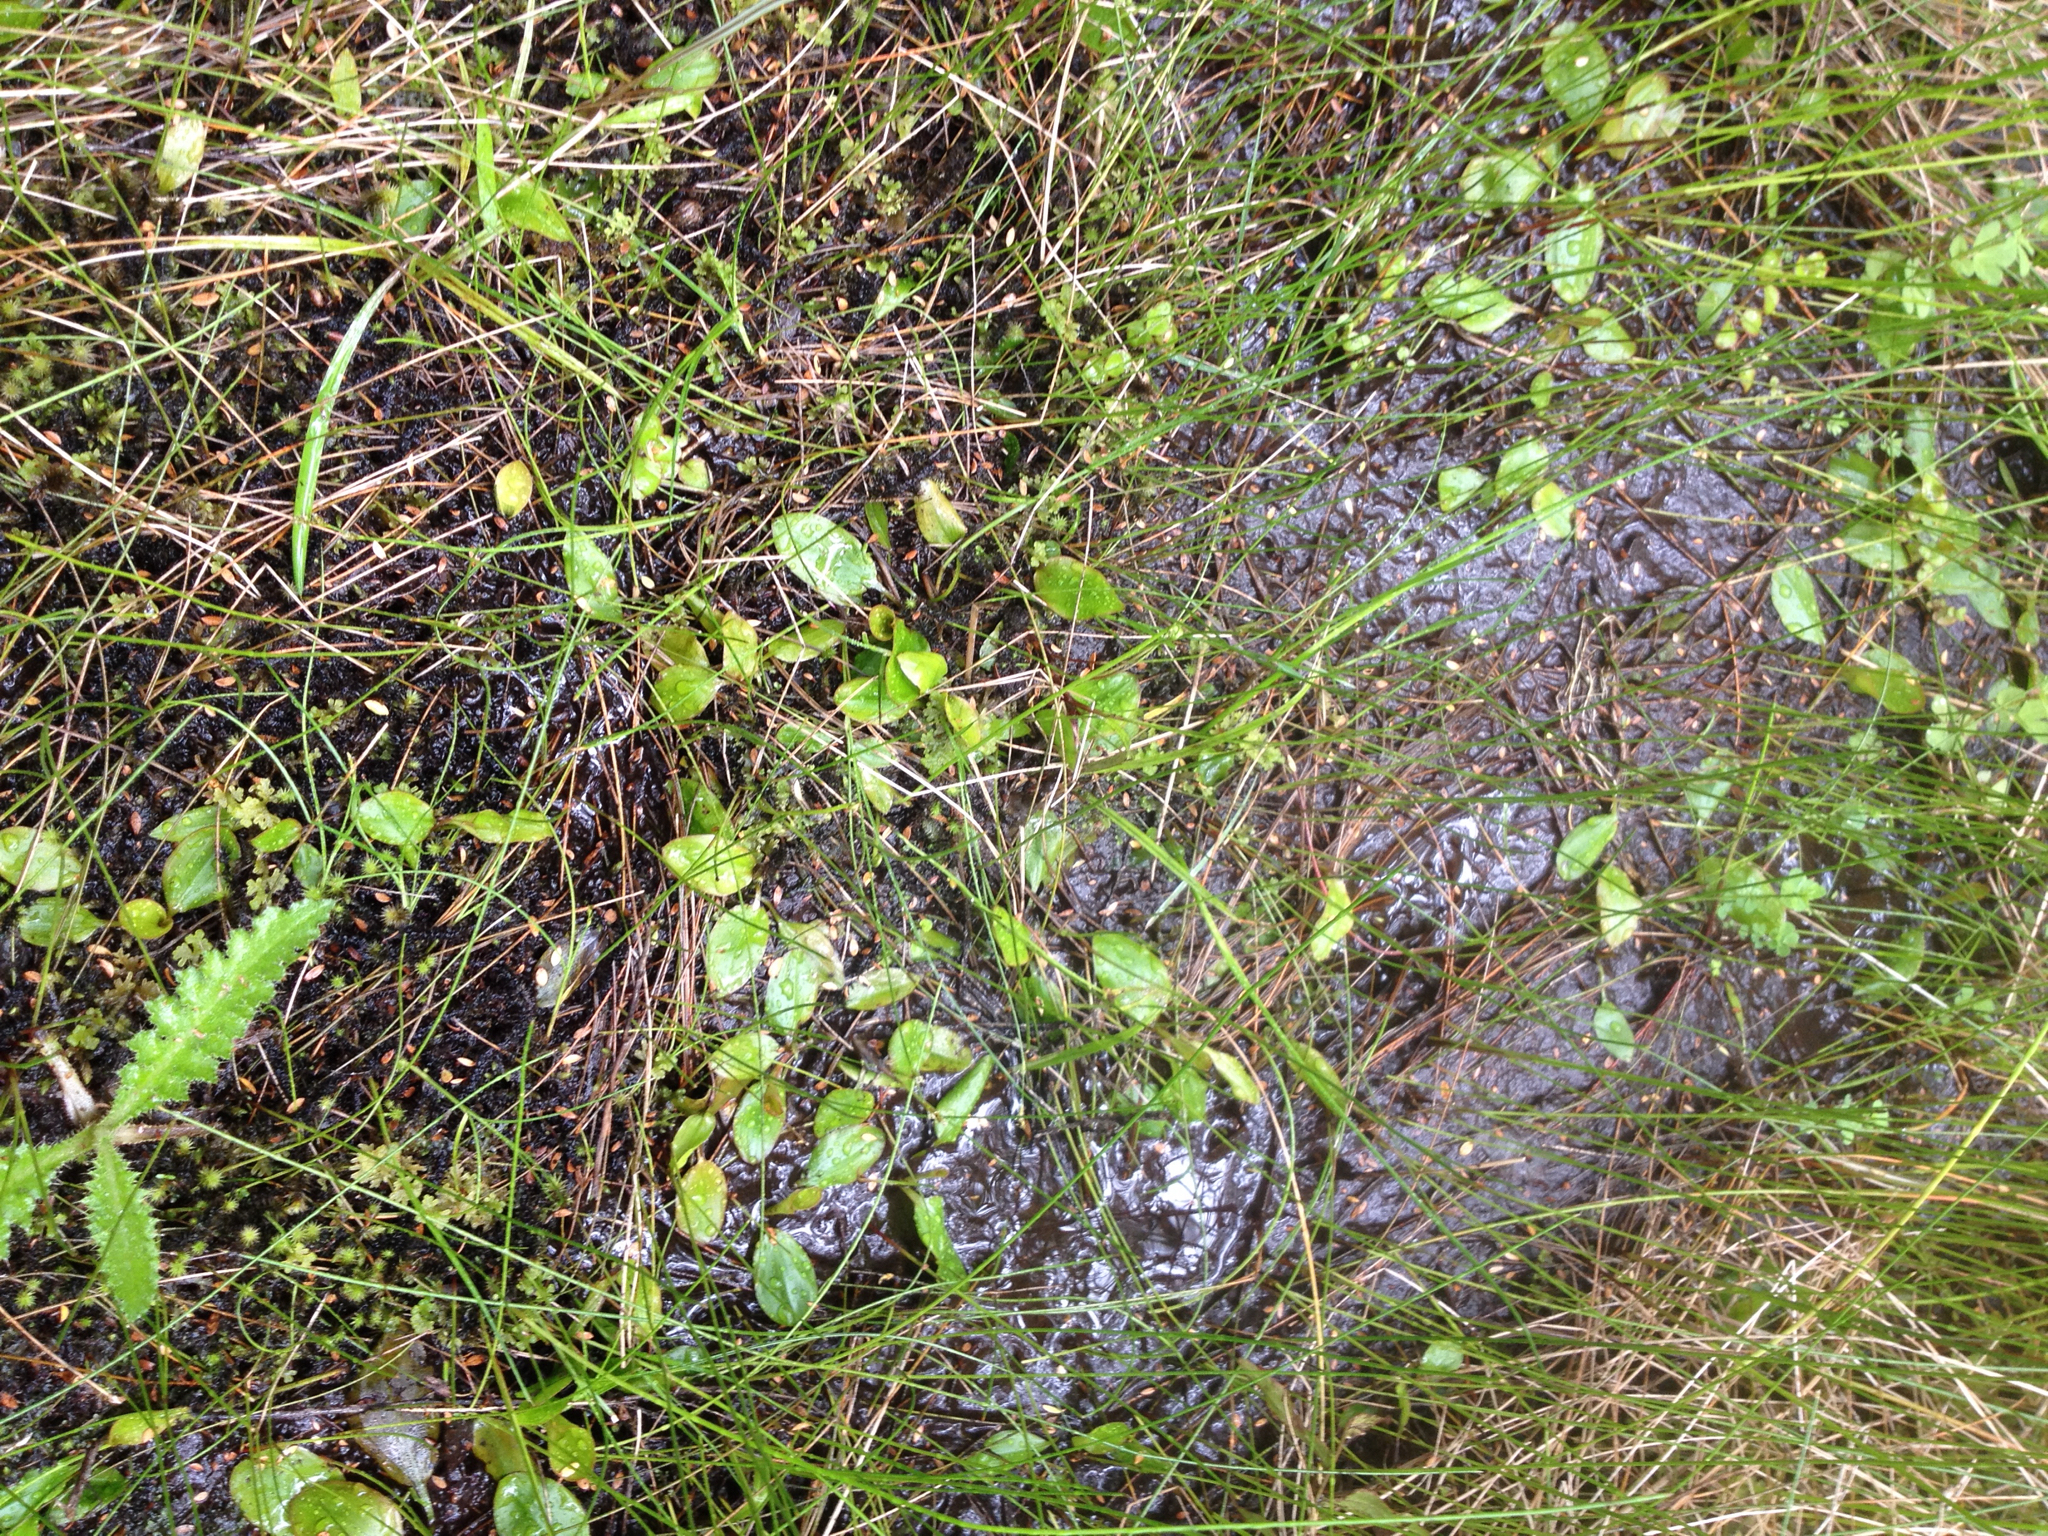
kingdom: Plantae
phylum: Tracheophyta
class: Liliopsida
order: Alismatales
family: Potamogetonaceae
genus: Potamogeton
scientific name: Potamogeton suboblongus
